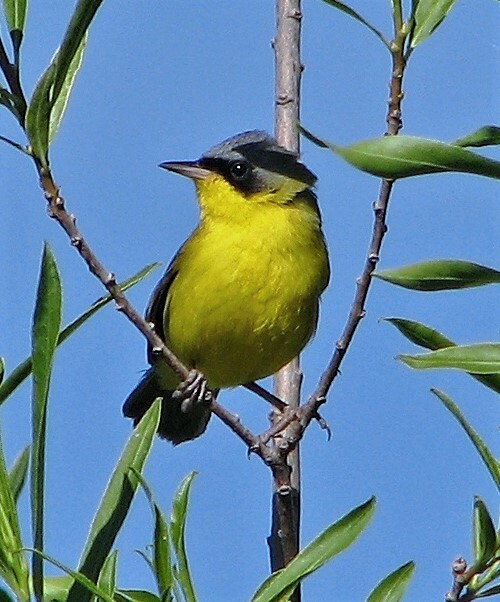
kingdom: Animalia
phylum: Chordata
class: Aves
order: Passeriformes
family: Parulidae
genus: Geothlypis
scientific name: Geothlypis velata
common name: Southern yellowthroat
